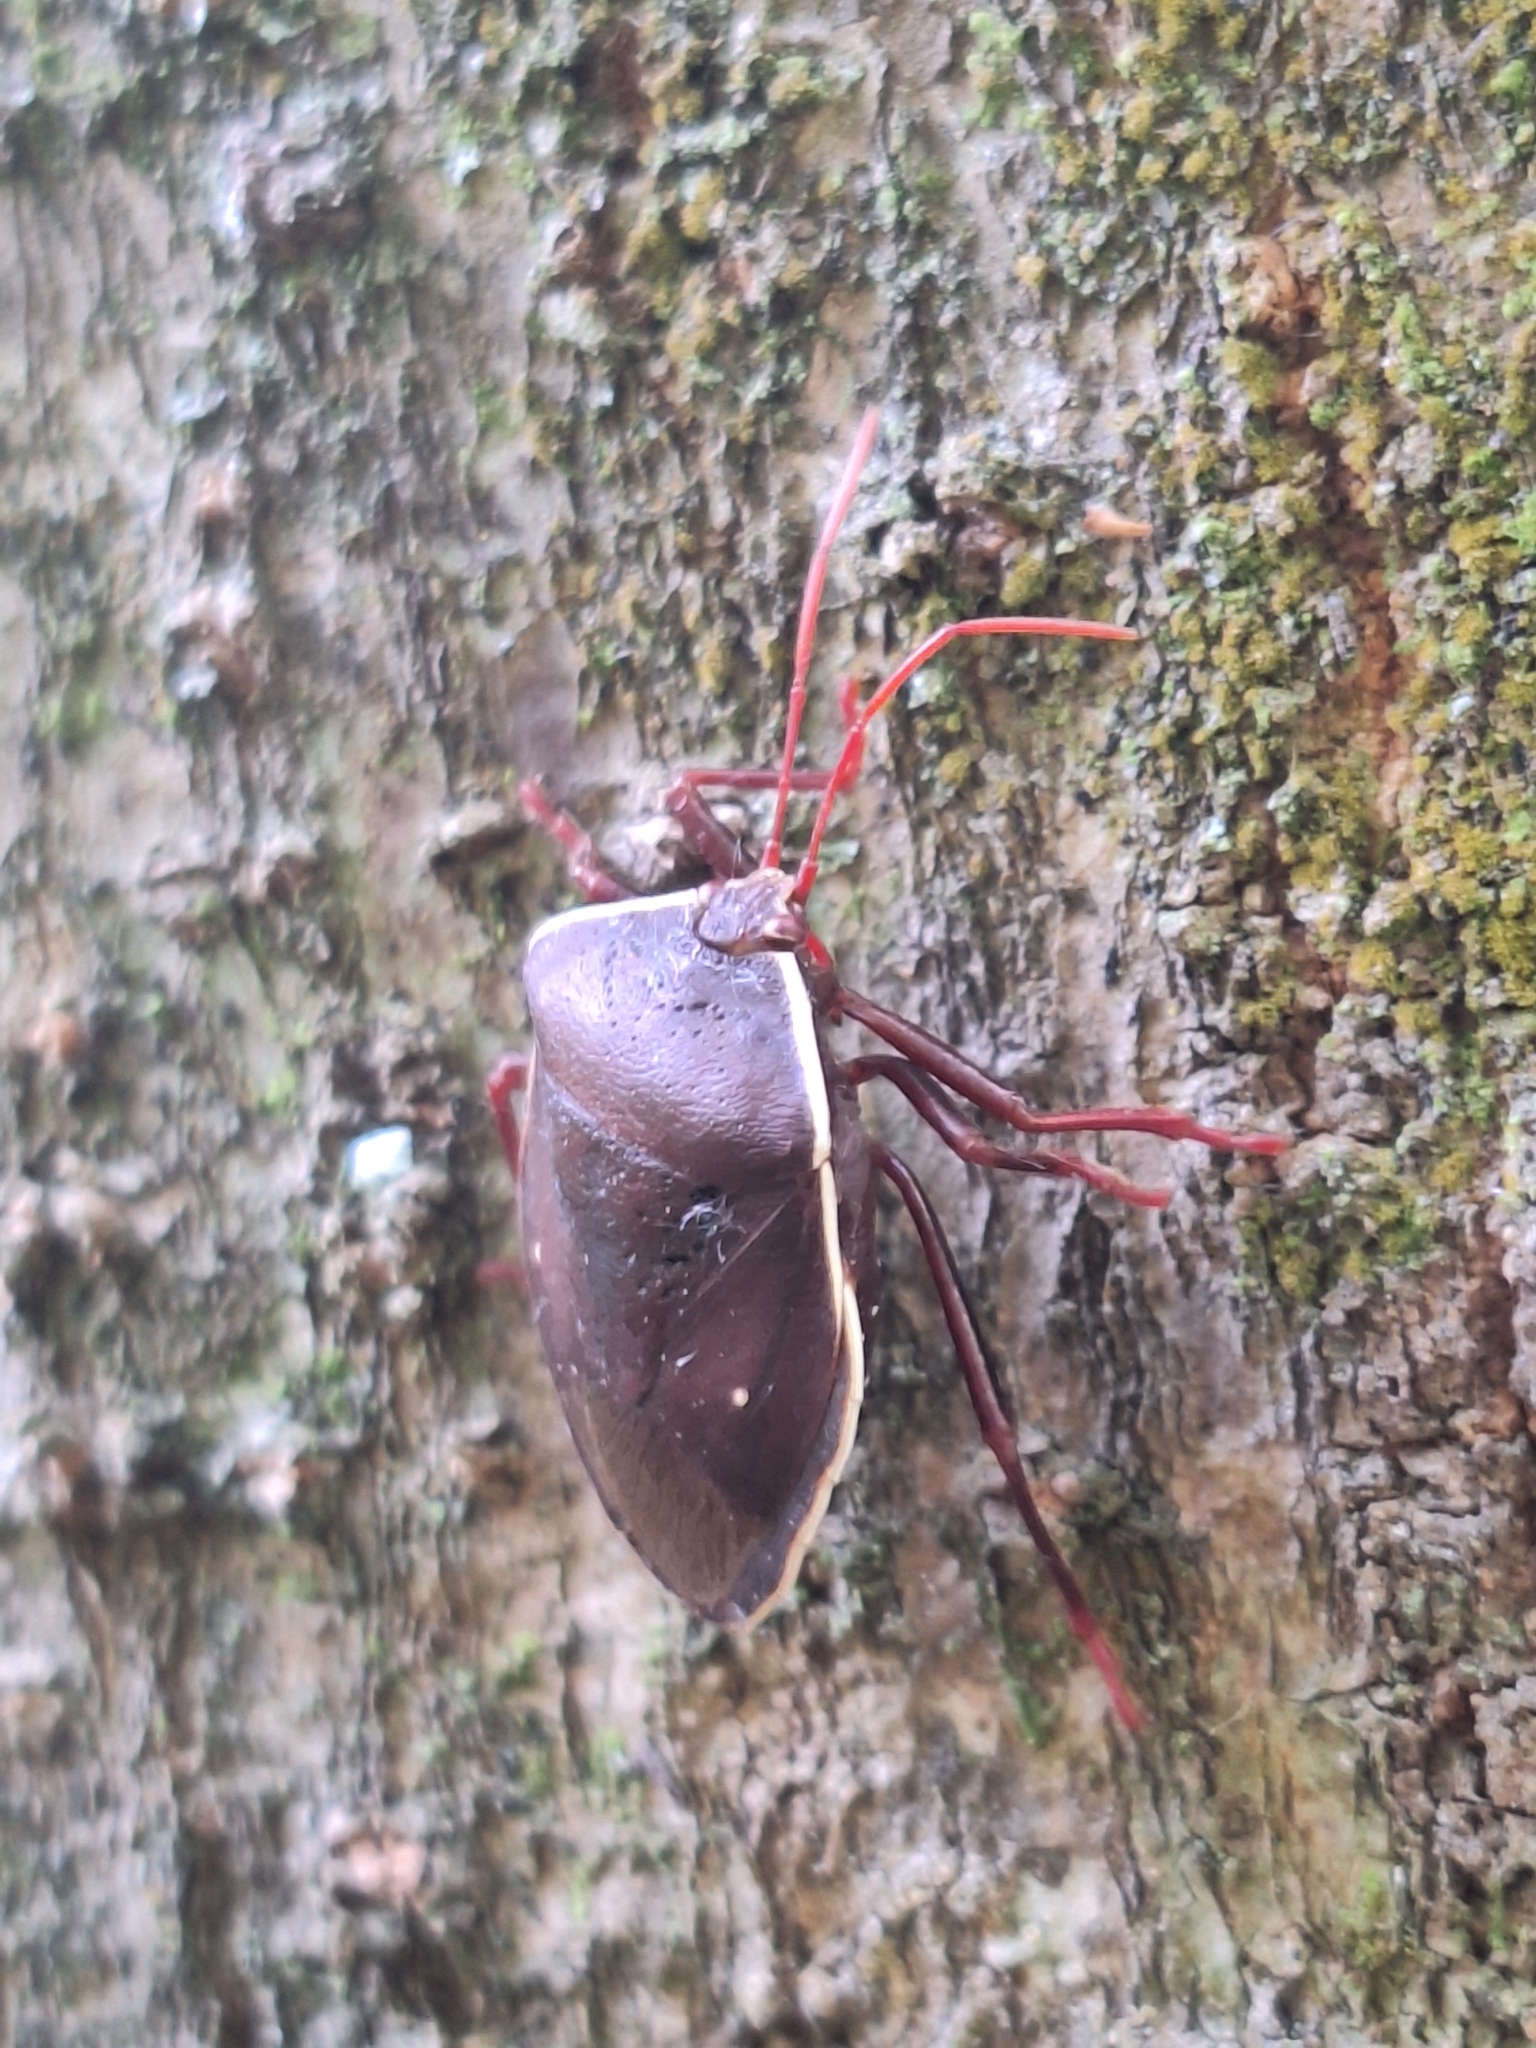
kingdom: Animalia
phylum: Arthropoda
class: Insecta
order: Hemiptera
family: Pentatomidae
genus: Brachystethus
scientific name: Brachystethus geniculatus
